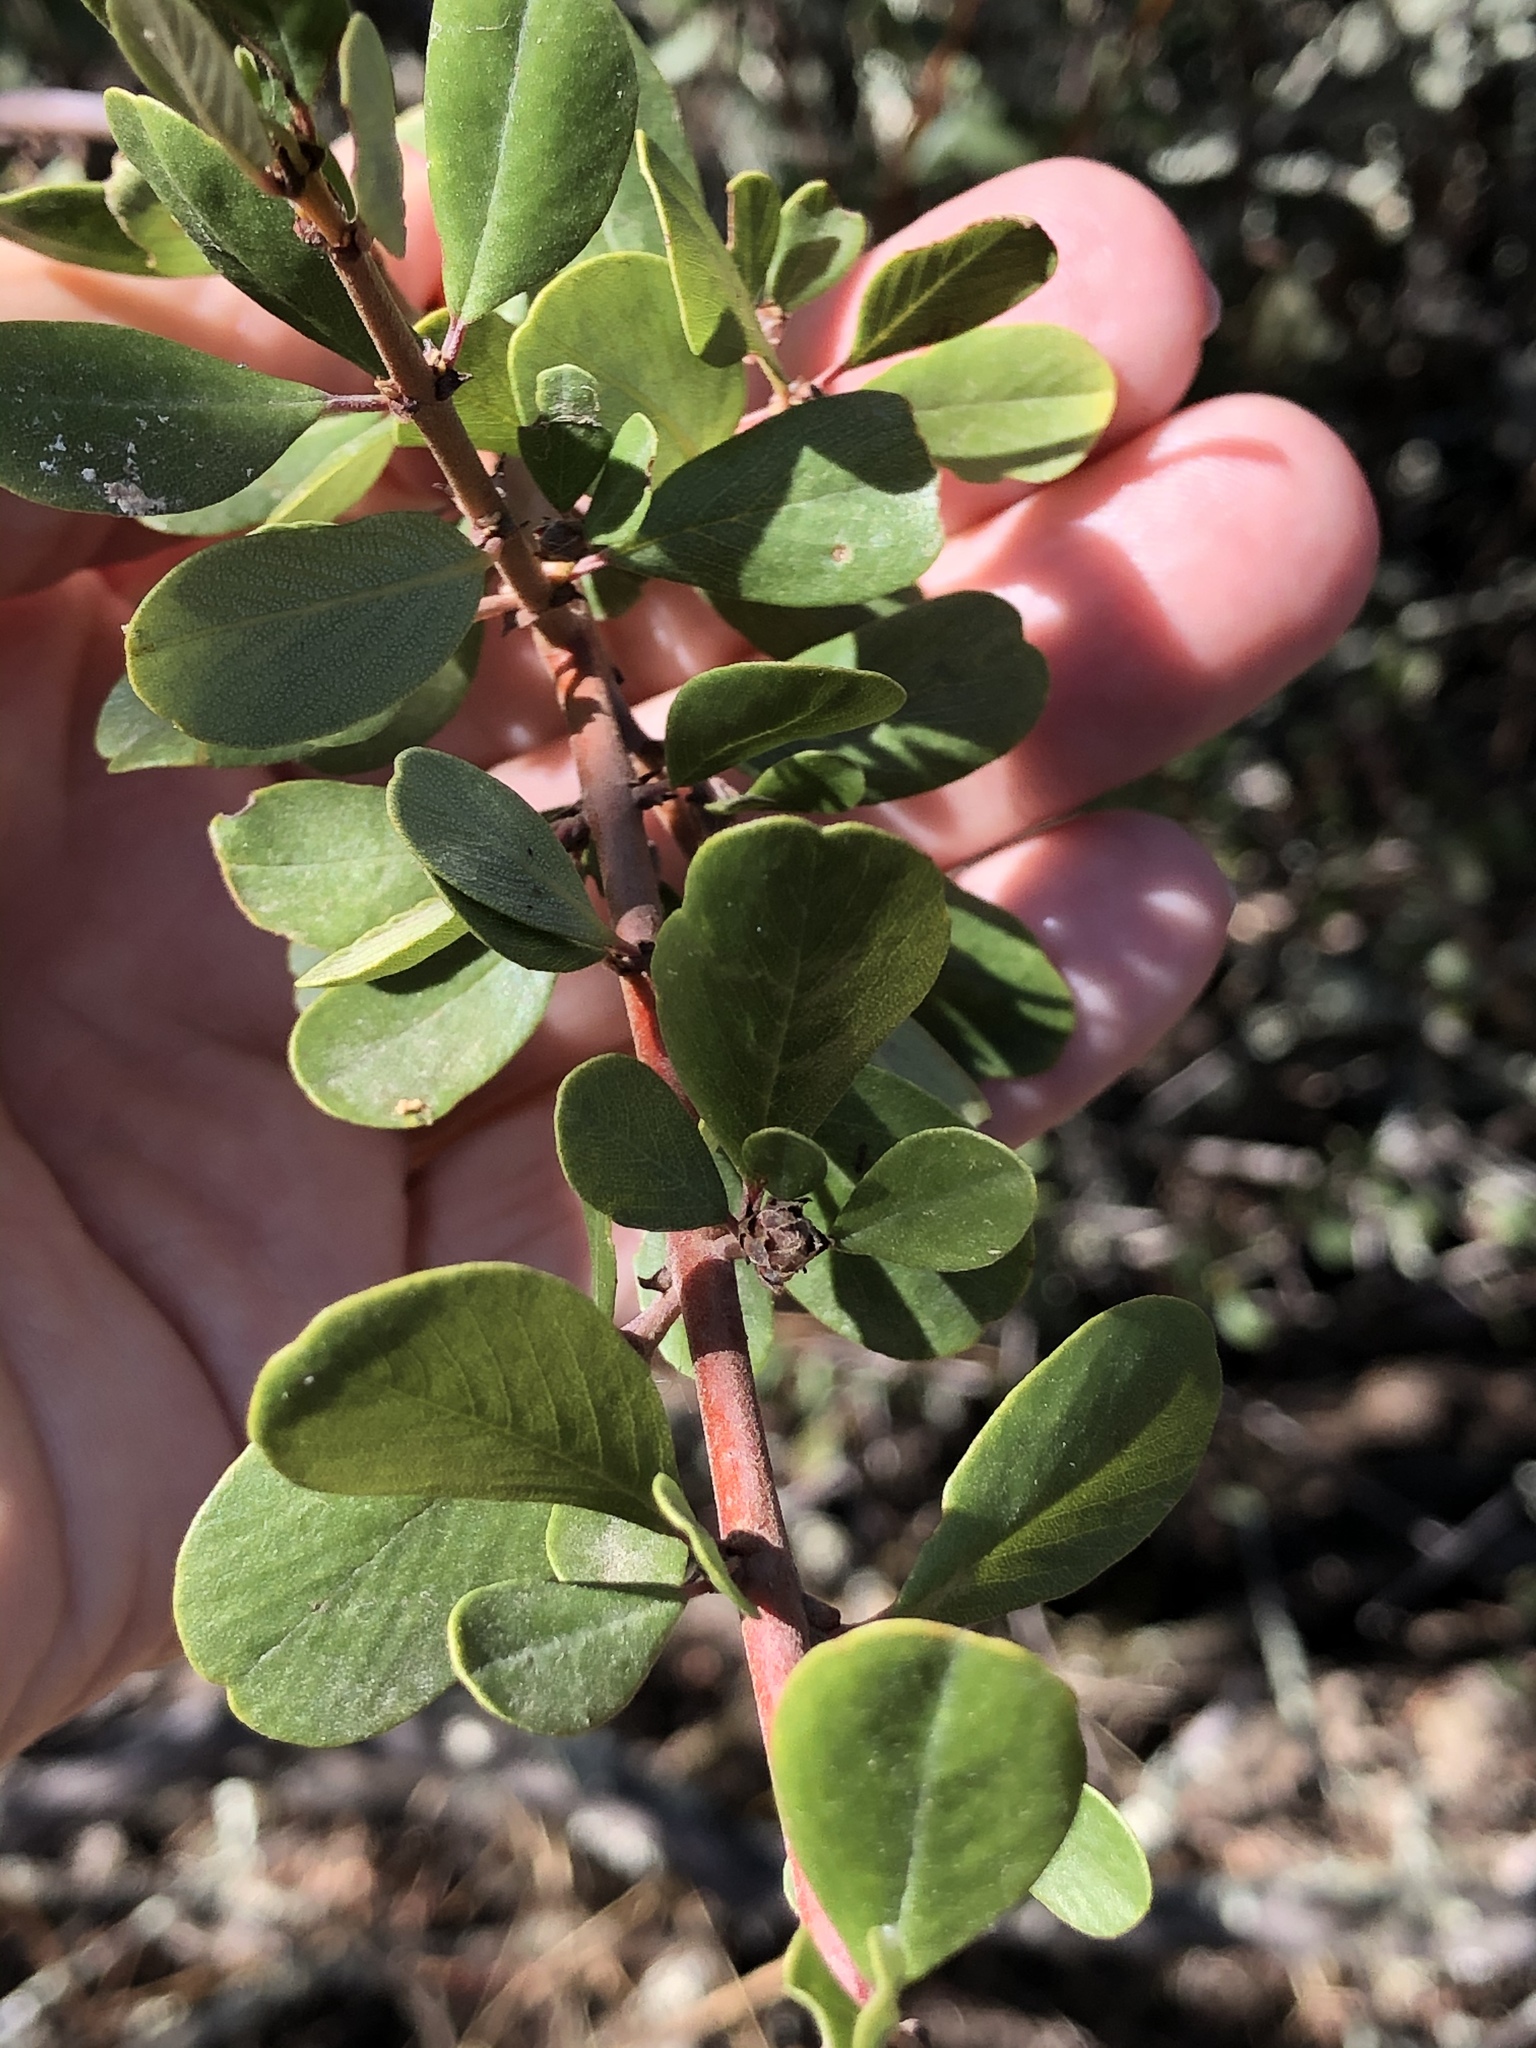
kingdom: Plantae
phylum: Tracheophyta
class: Magnoliopsida
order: Rosales
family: Rhamnaceae
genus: Ceanothus
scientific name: Ceanothus cuneatus
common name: Cuneate ceanothus
